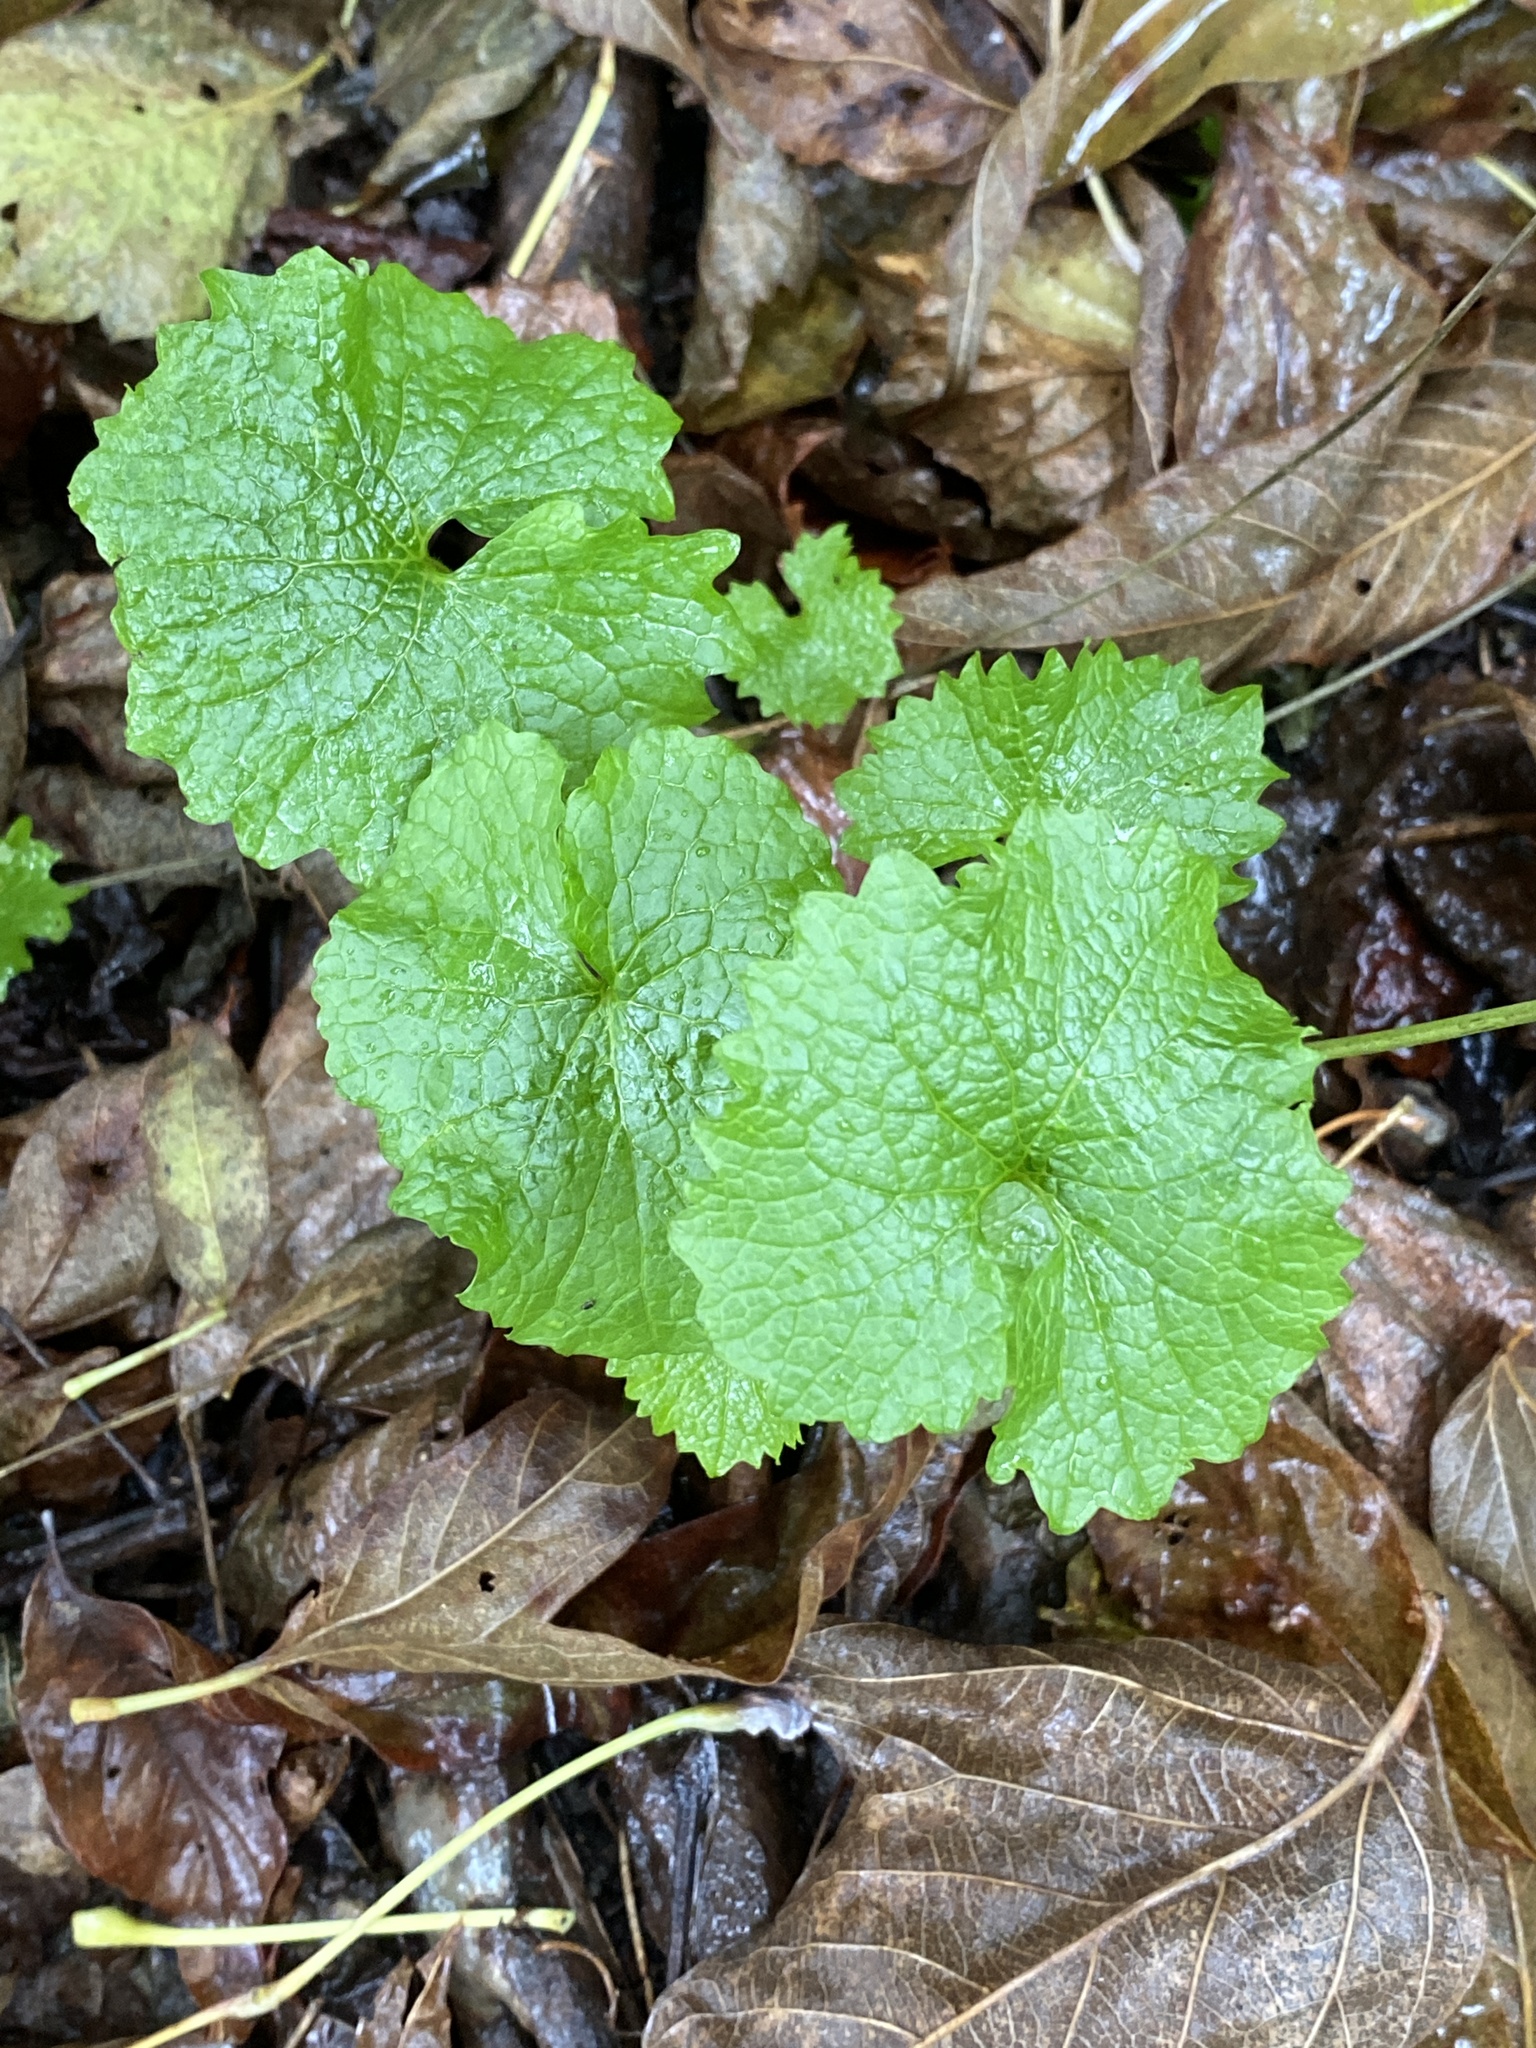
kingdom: Plantae
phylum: Tracheophyta
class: Magnoliopsida
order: Brassicales
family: Brassicaceae
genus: Alliaria
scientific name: Alliaria petiolata
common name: Garlic mustard
